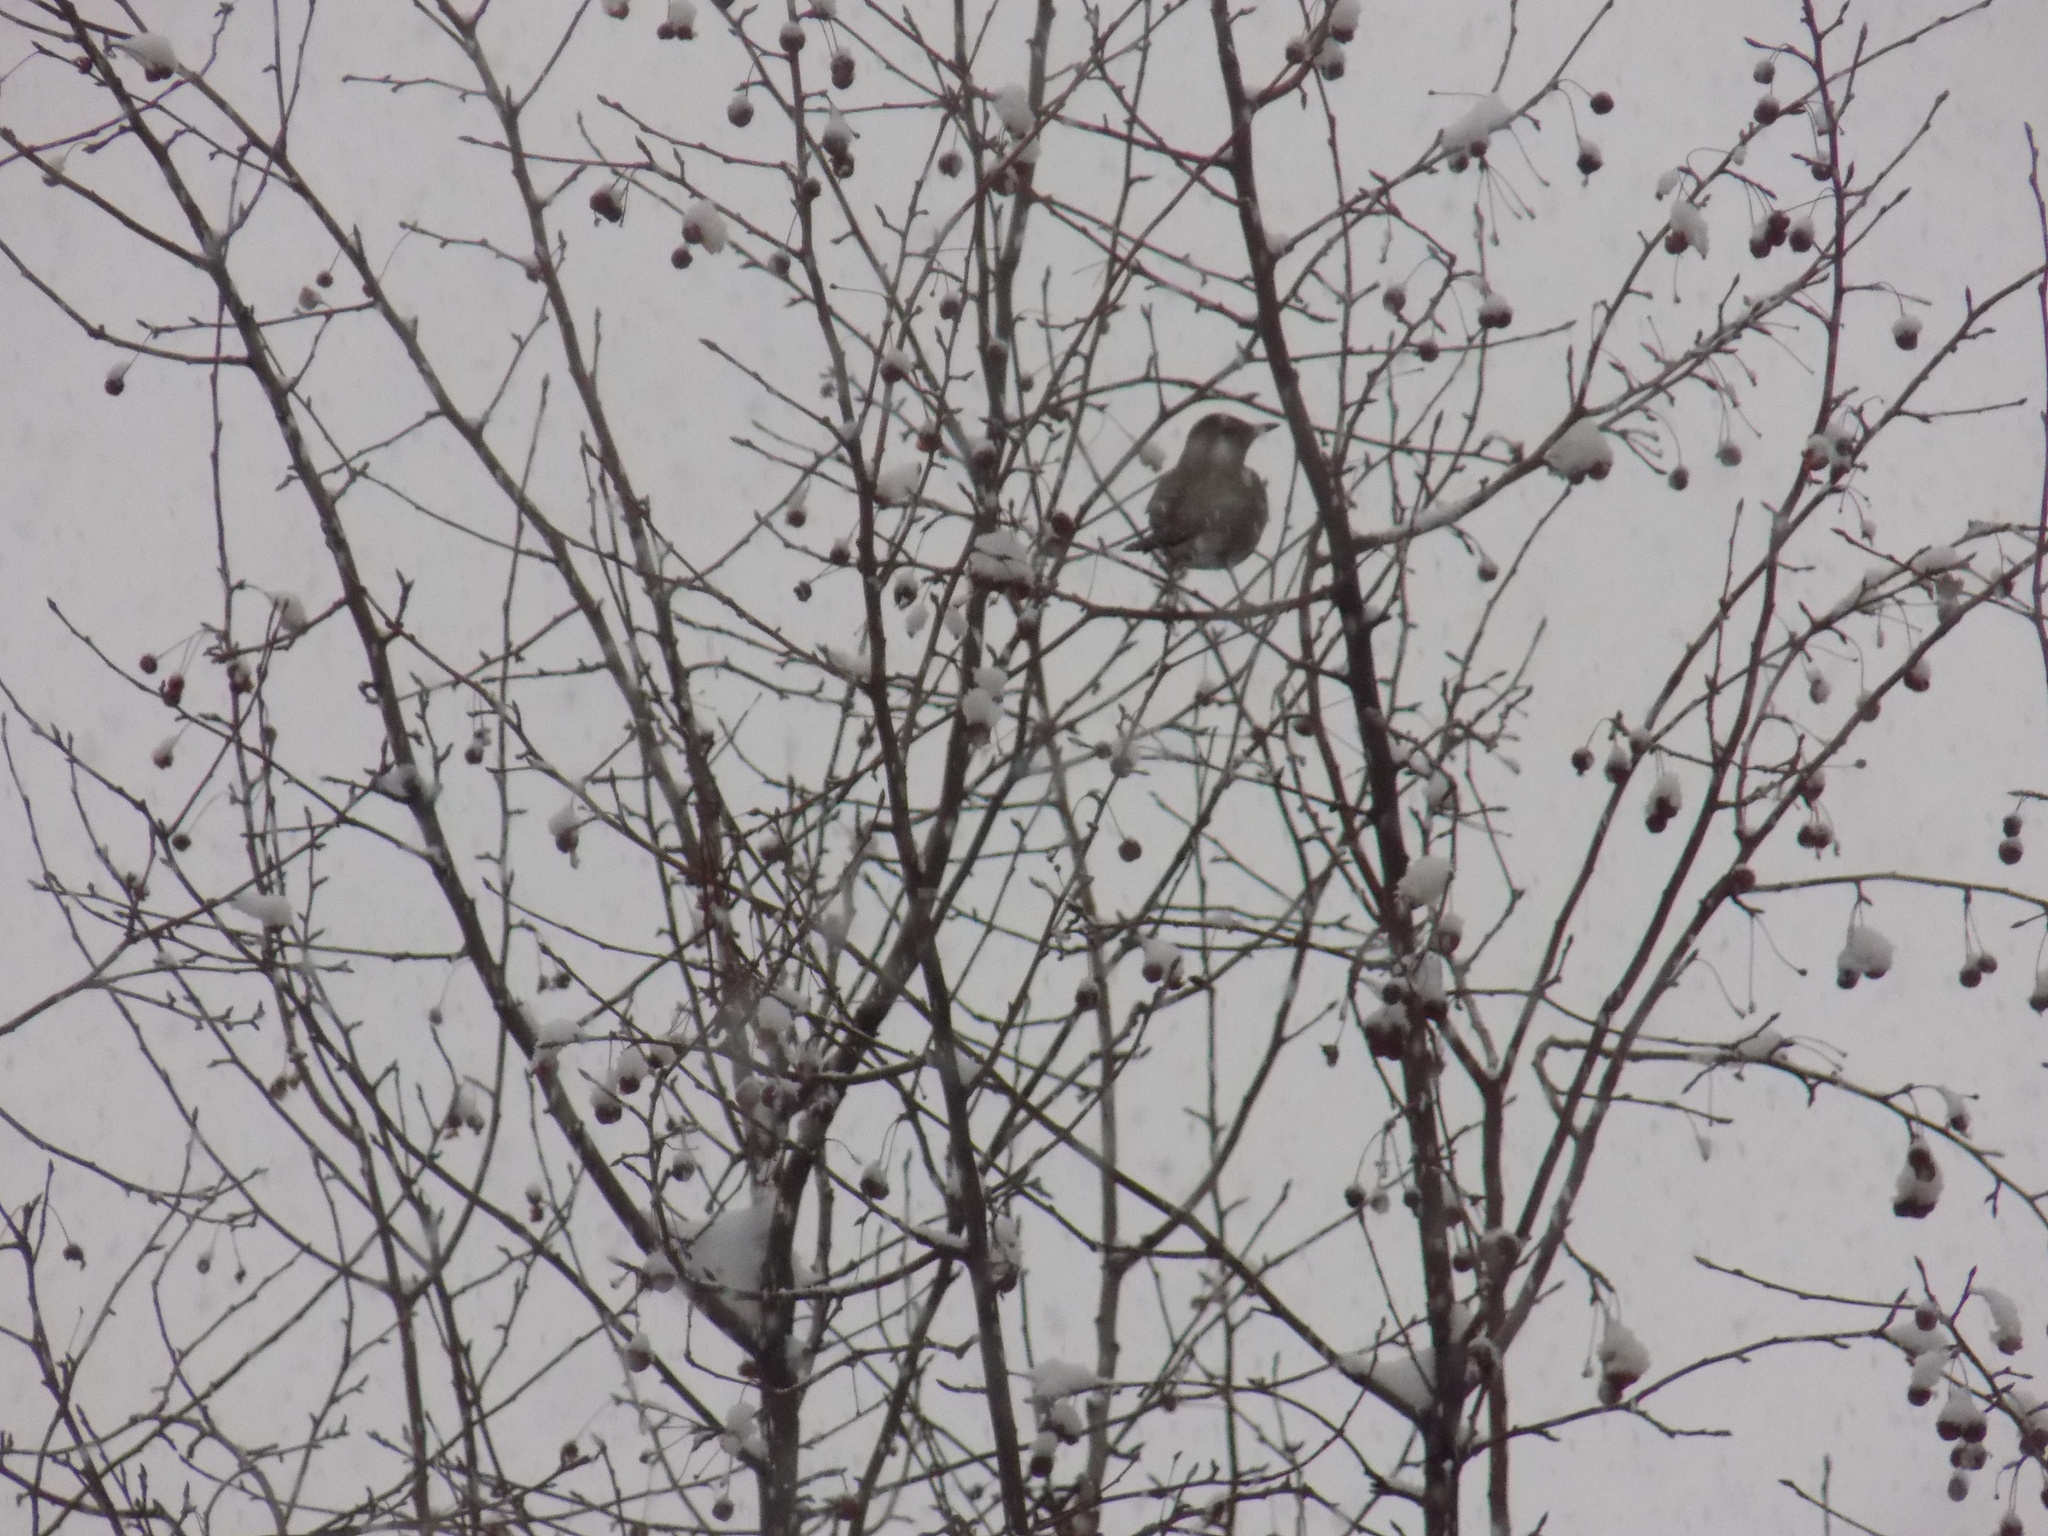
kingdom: Animalia
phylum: Chordata
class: Aves
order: Passeriformes
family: Turdidae
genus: Turdus
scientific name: Turdus atrogularis
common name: Black-throated thrush
